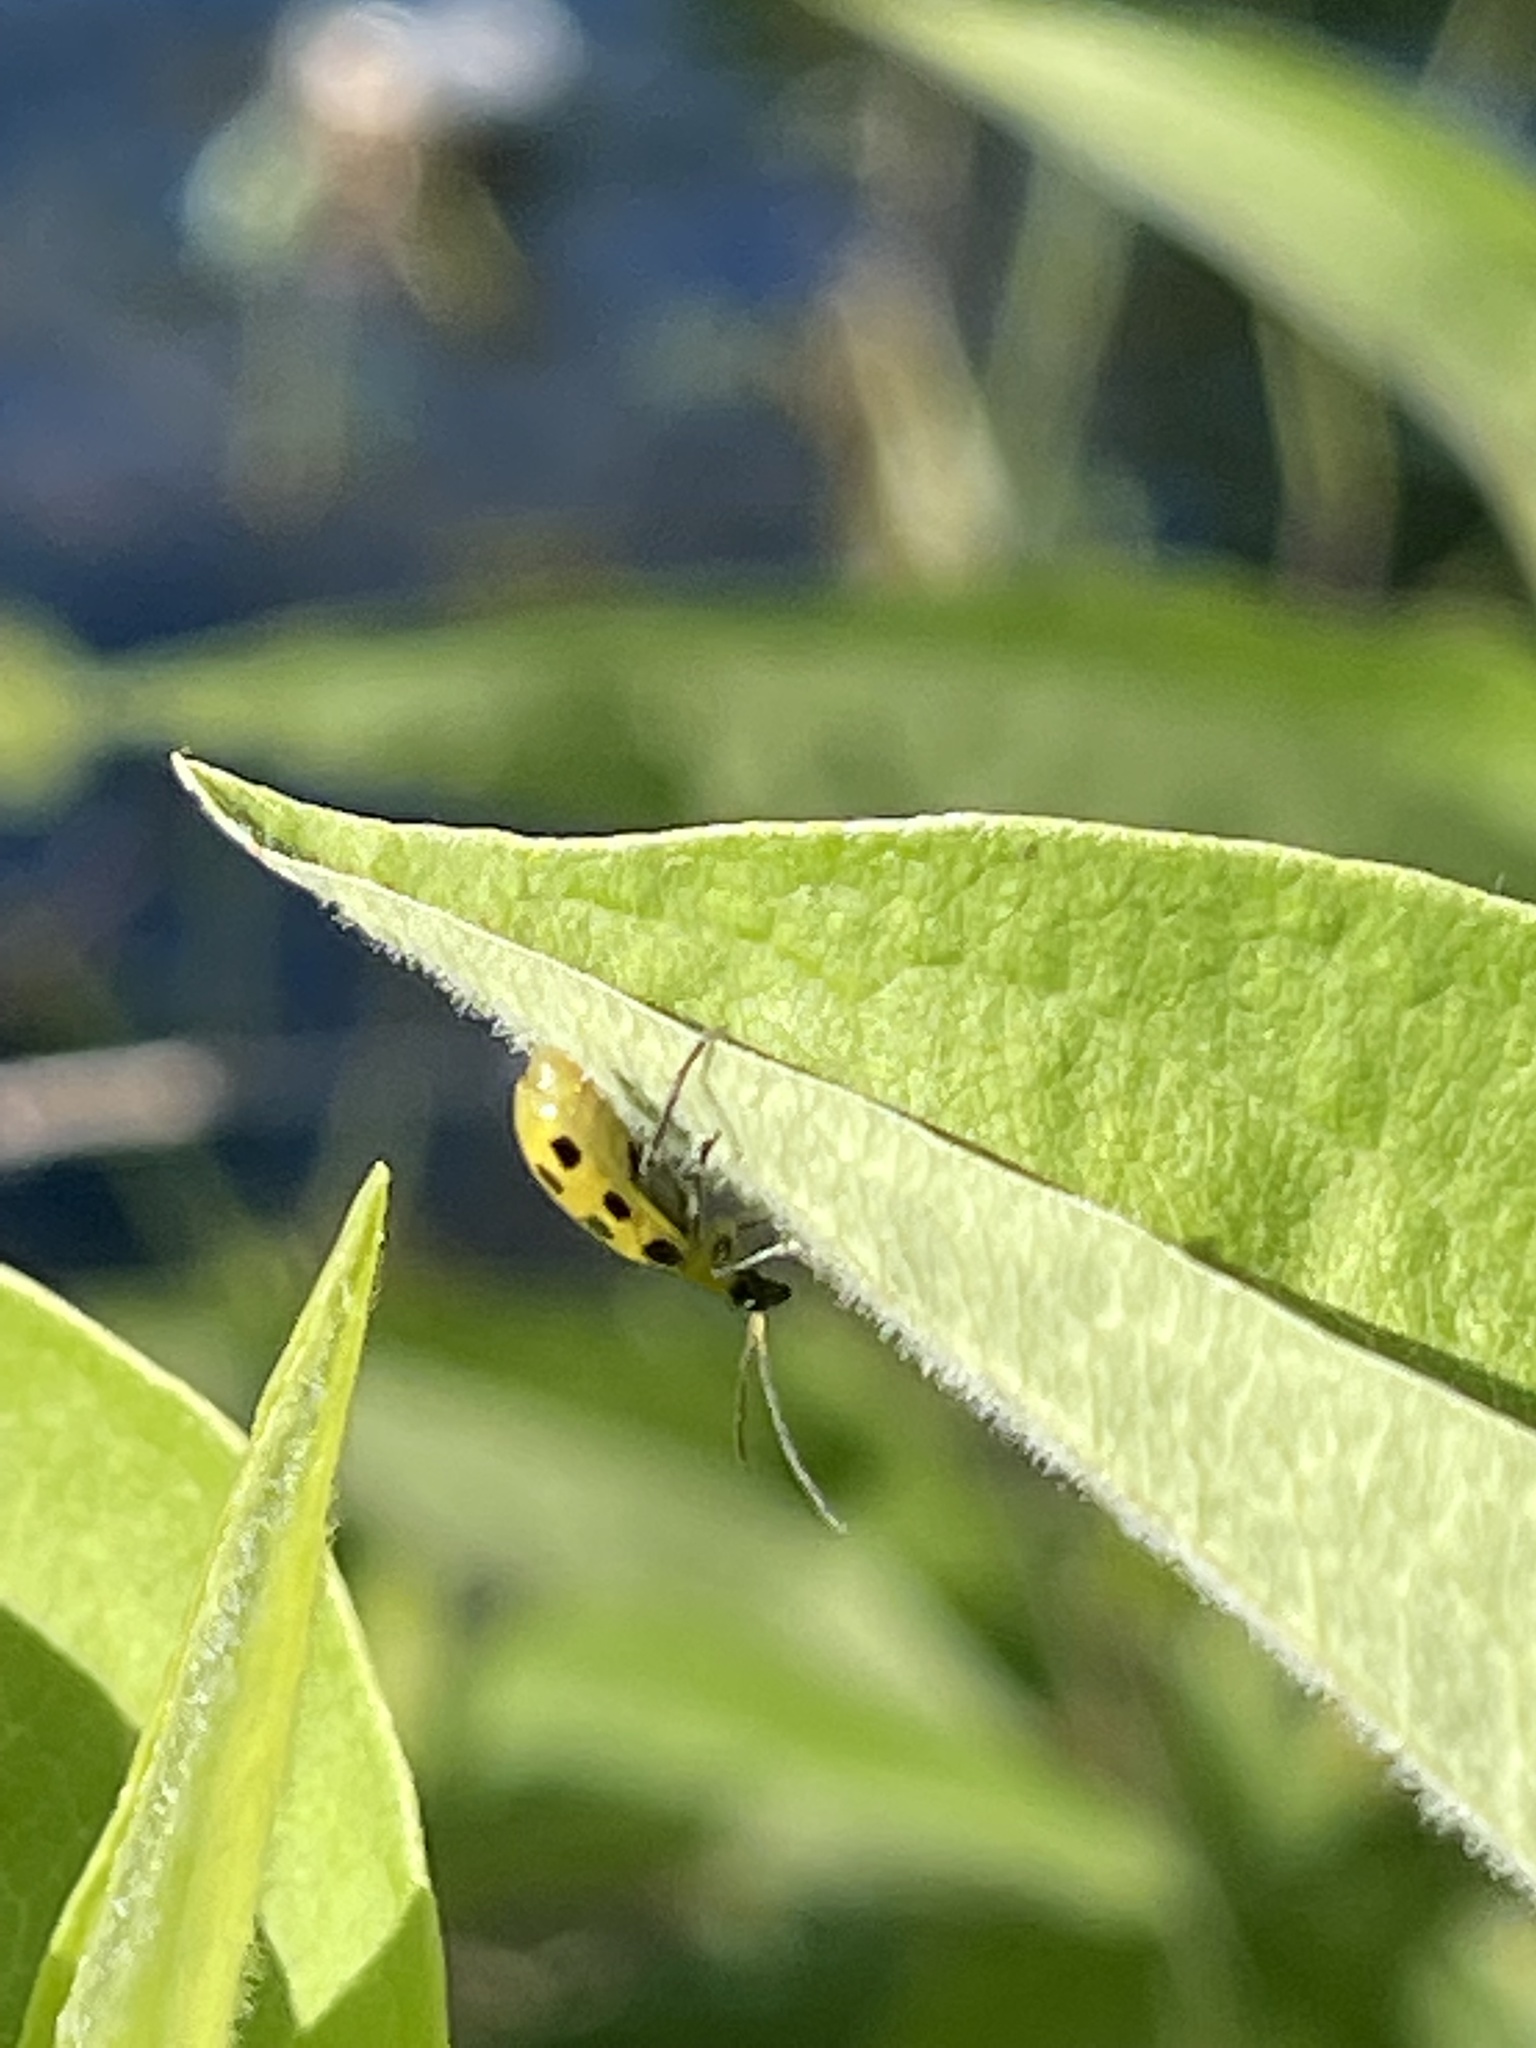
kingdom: Animalia
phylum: Arthropoda
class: Insecta
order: Coleoptera
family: Chrysomelidae
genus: Diabrotica
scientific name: Diabrotica undecimpunctata
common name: Spotted cucumber beetle
